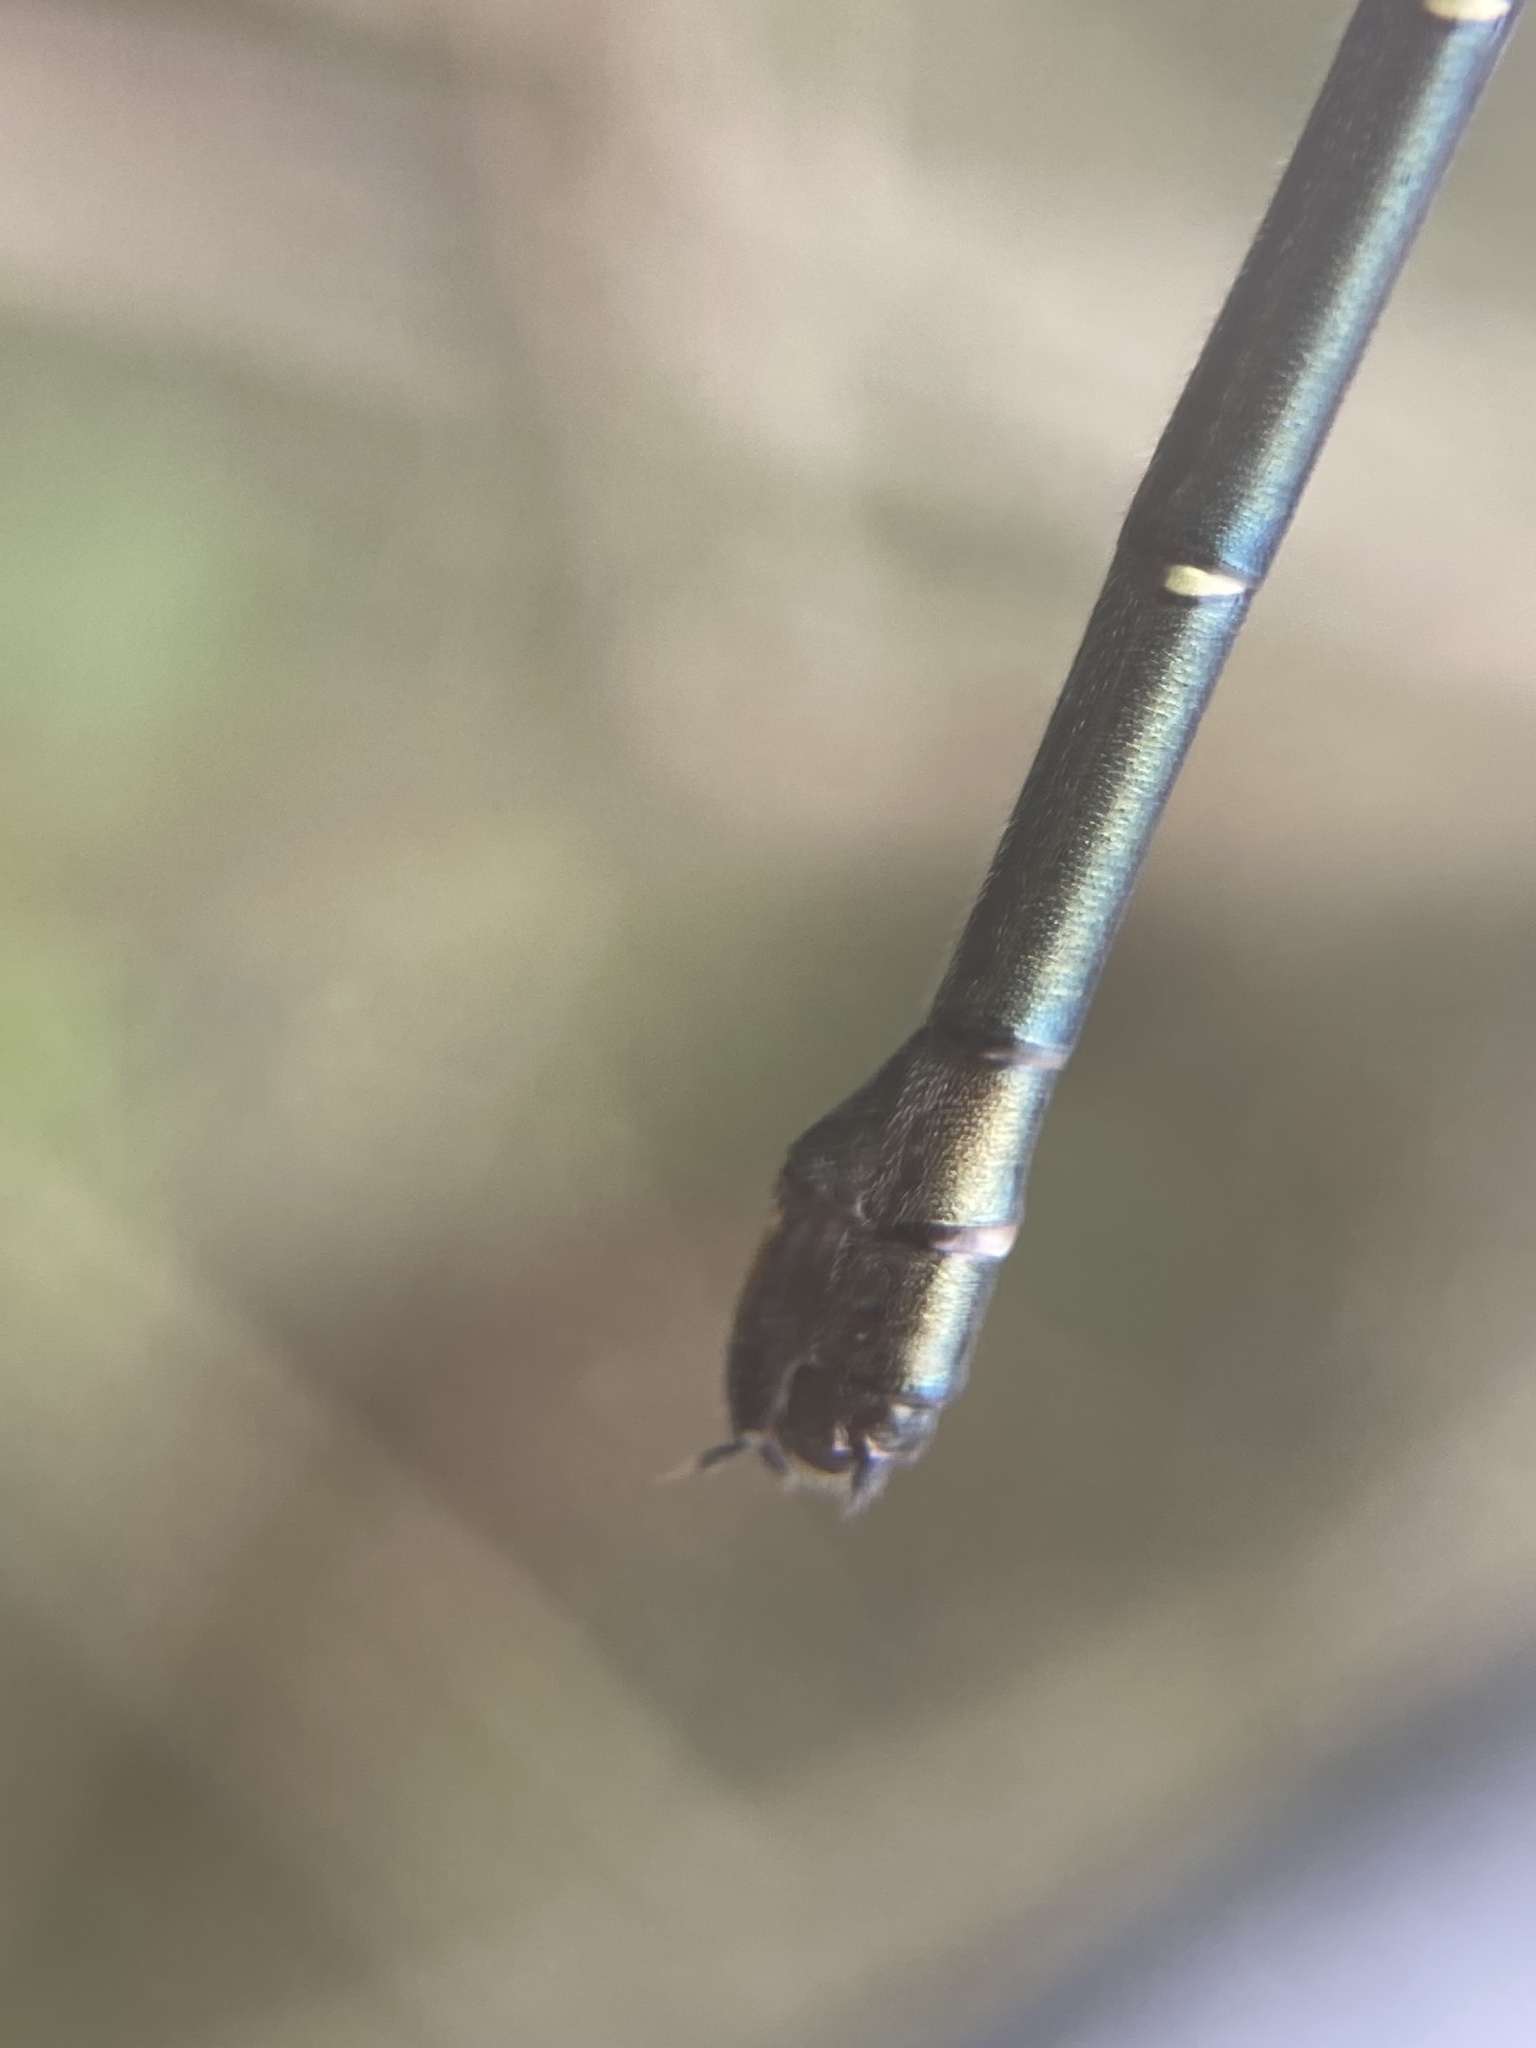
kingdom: Animalia
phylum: Arthropoda
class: Insecta
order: Odonata
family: Argiolestidae
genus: Austroargiolestes
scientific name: Austroargiolestes icteromelas
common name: Common flatwing
